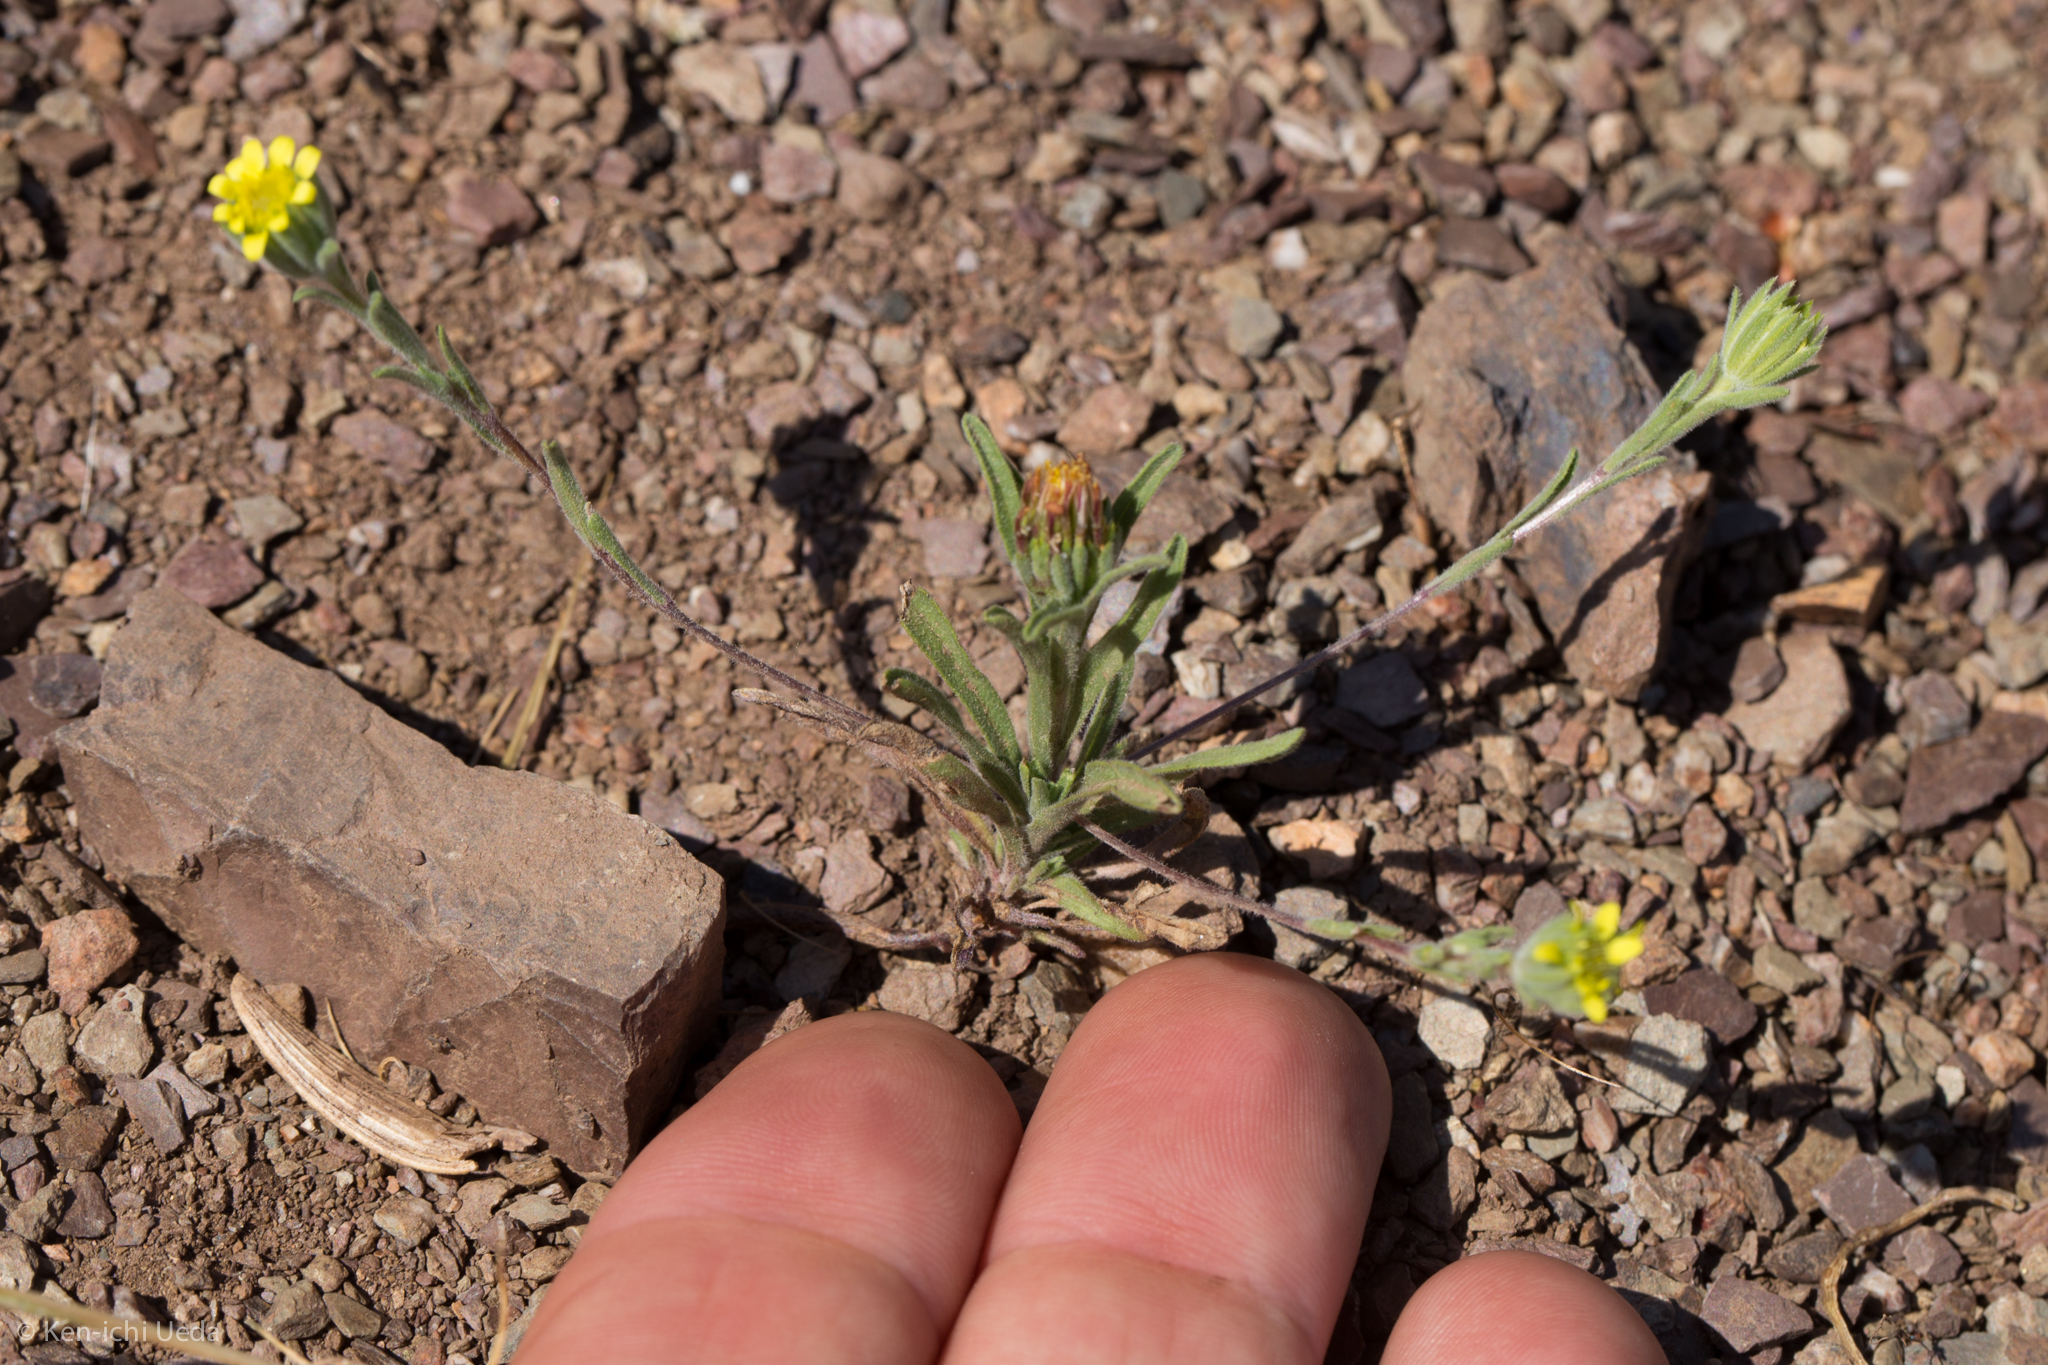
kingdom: Plantae
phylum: Tracheophyta
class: Magnoliopsida
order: Asterales
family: Asteraceae
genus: Rigiopappus
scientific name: Rigiopappus leptocladus
